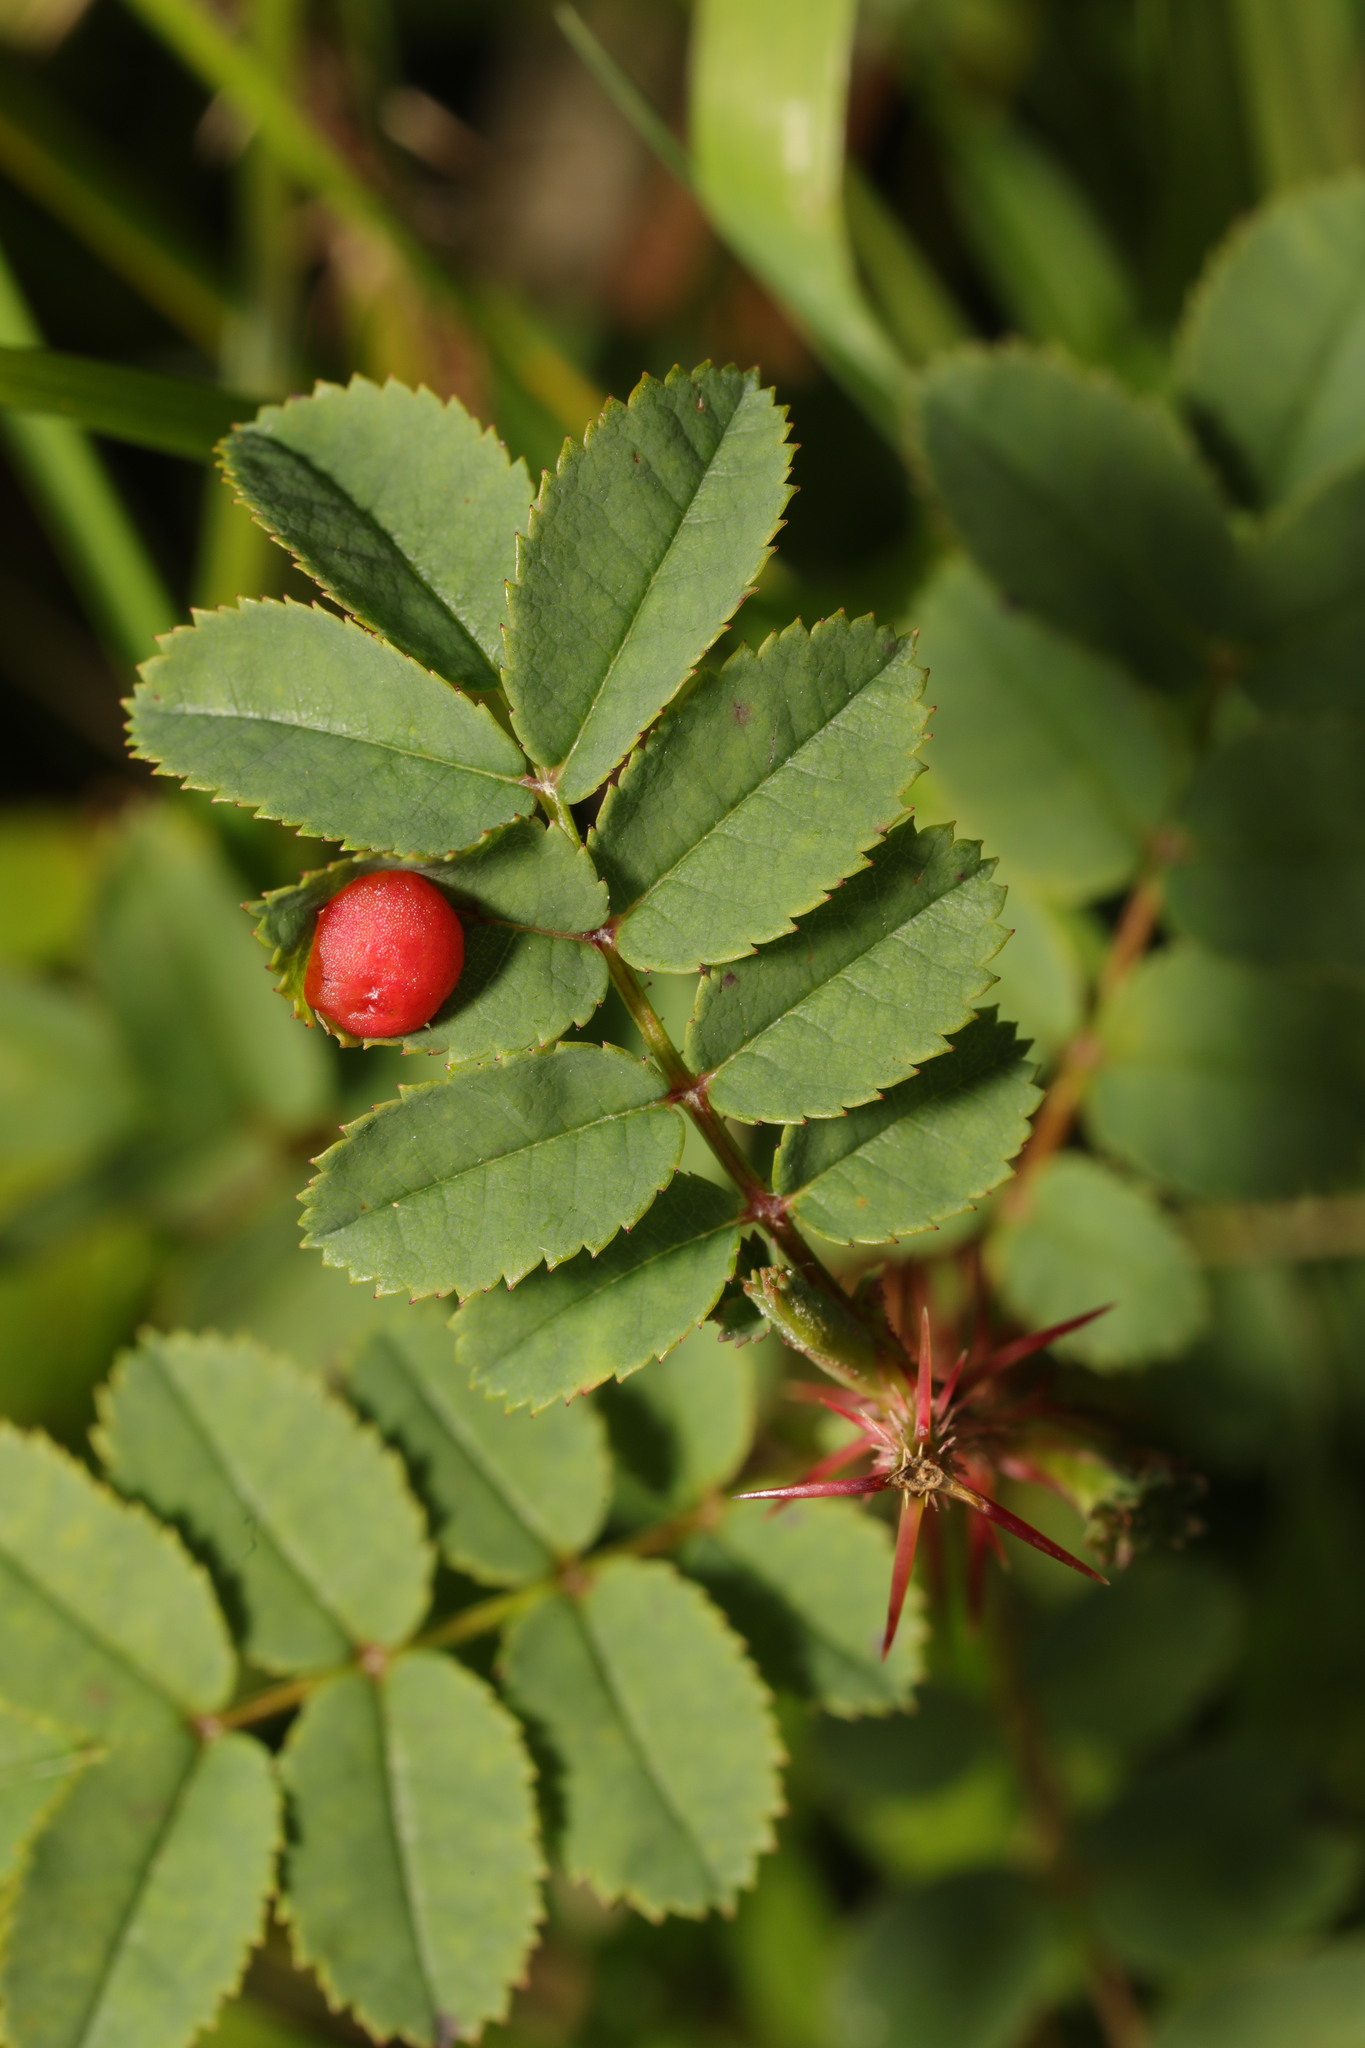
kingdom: Animalia
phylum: Arthropoda
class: Insecta
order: Hymenoptera
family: Cynipidae
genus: Diplolepis
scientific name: Diplolepis
